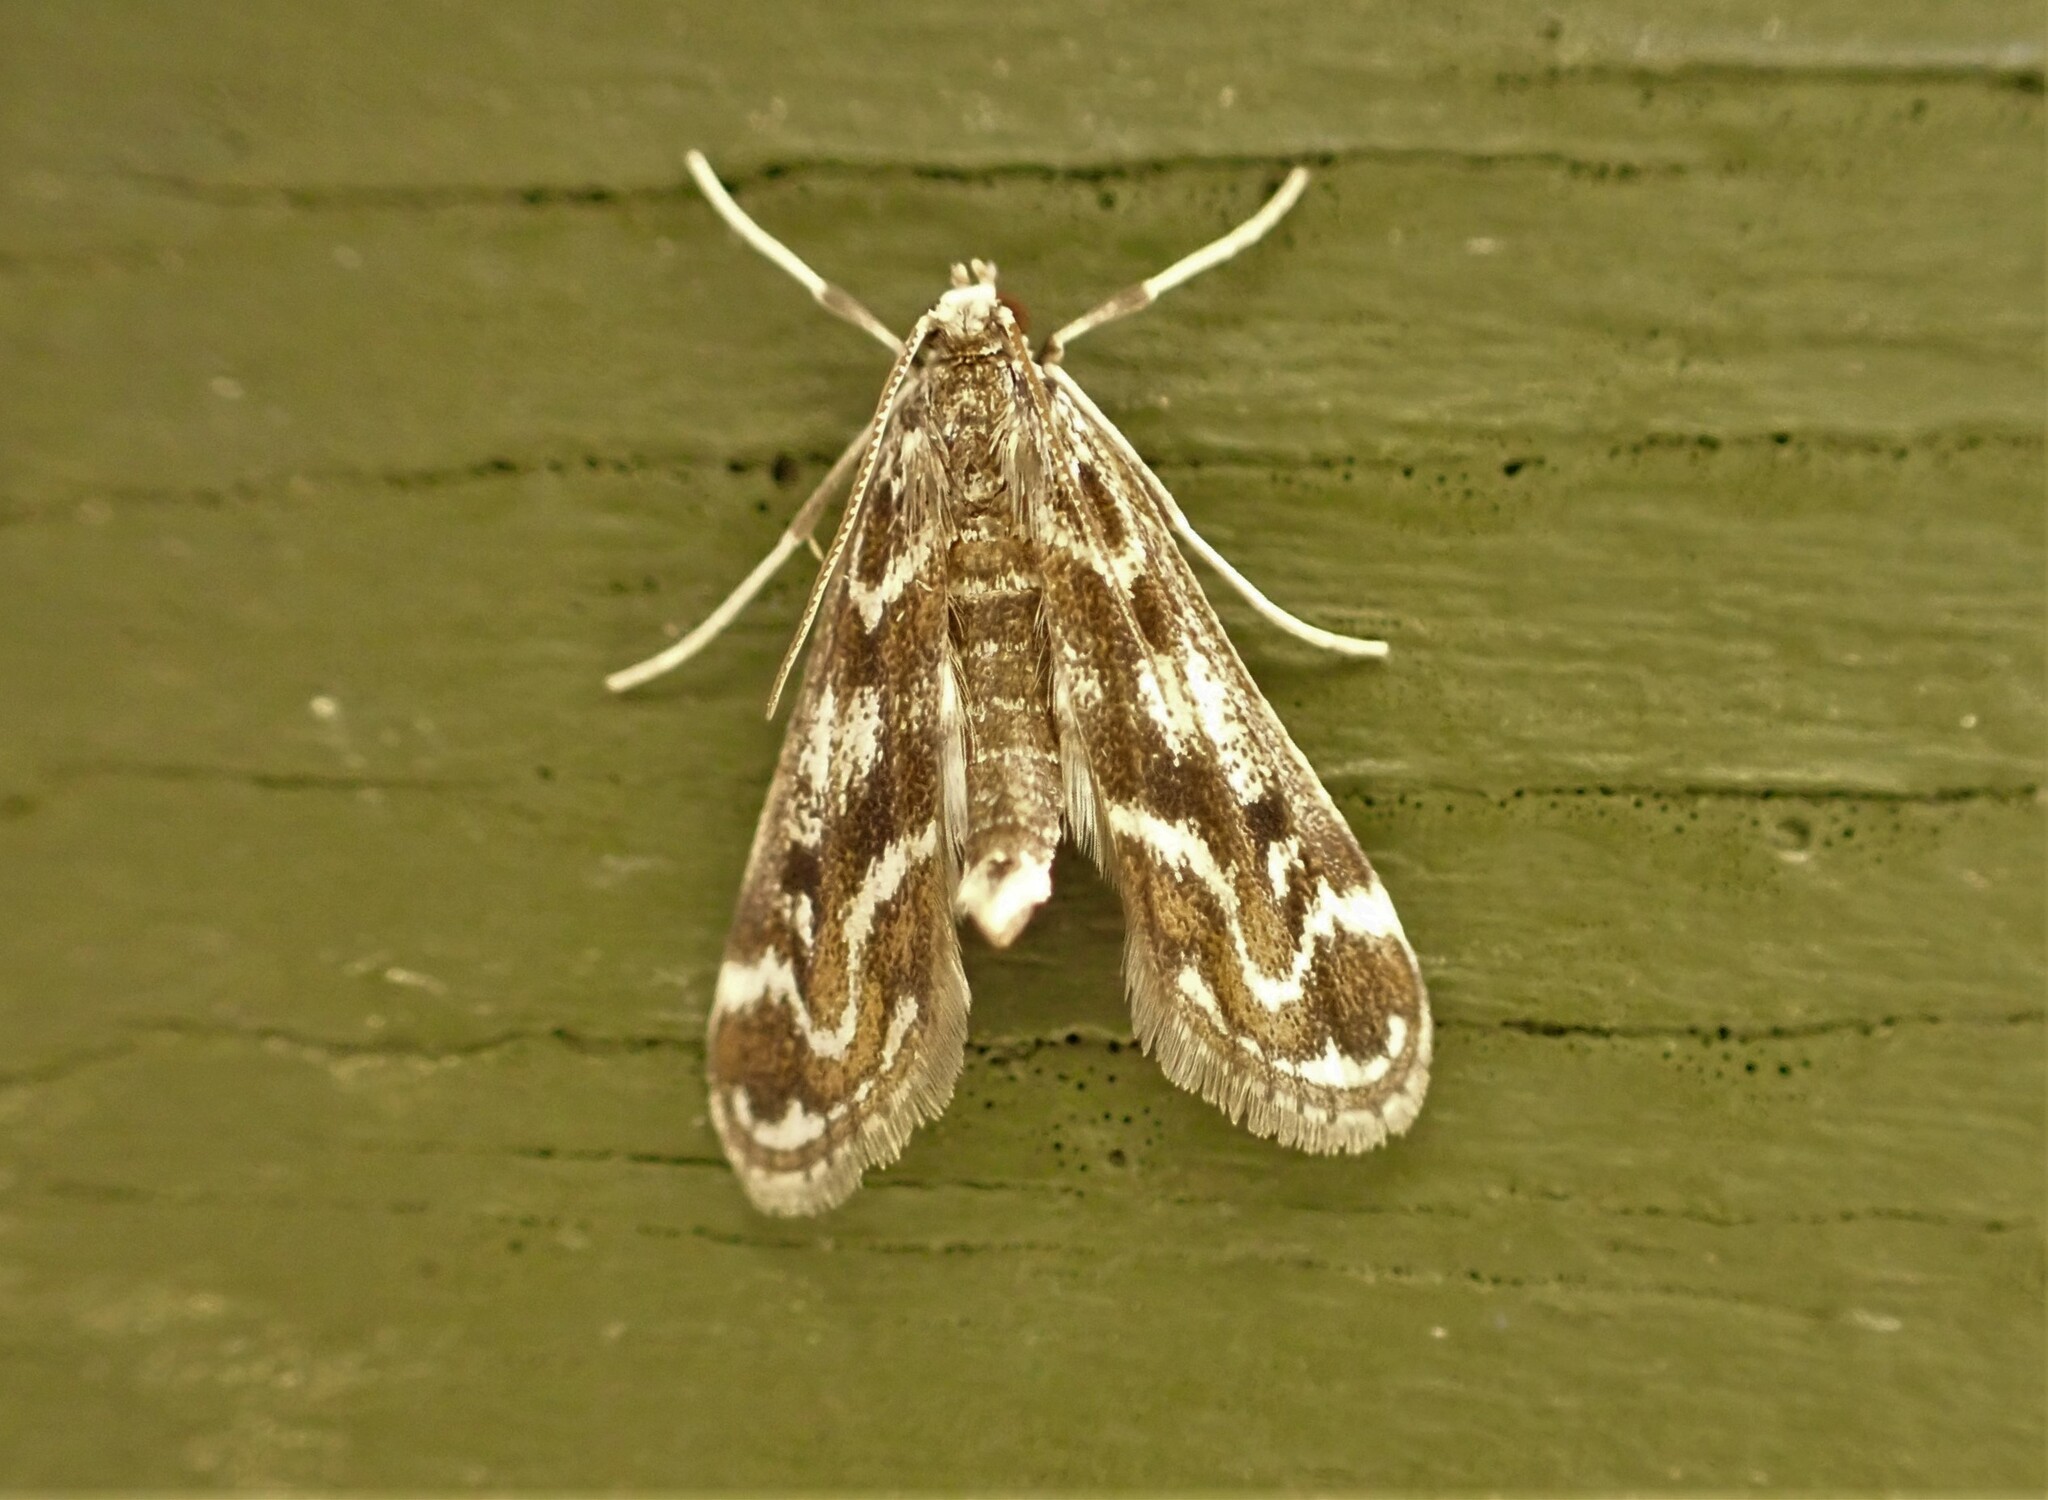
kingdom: Animalia
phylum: Arthropoda
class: Insecta
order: Lepidoptera
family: Crambidae
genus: Hygraula
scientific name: Hygraula nitens
